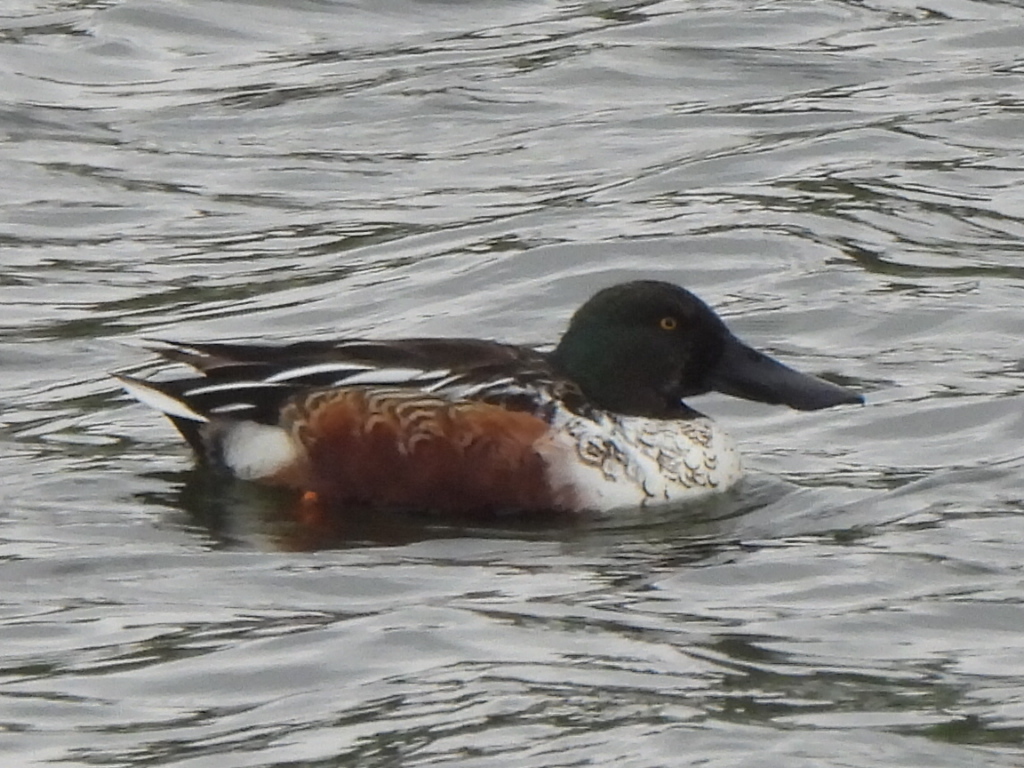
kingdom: Animalia
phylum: Chordata
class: Aves
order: Anseriformes
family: Anatidae
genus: Spatula
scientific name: Spatula clypeata
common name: Northern shoveler
